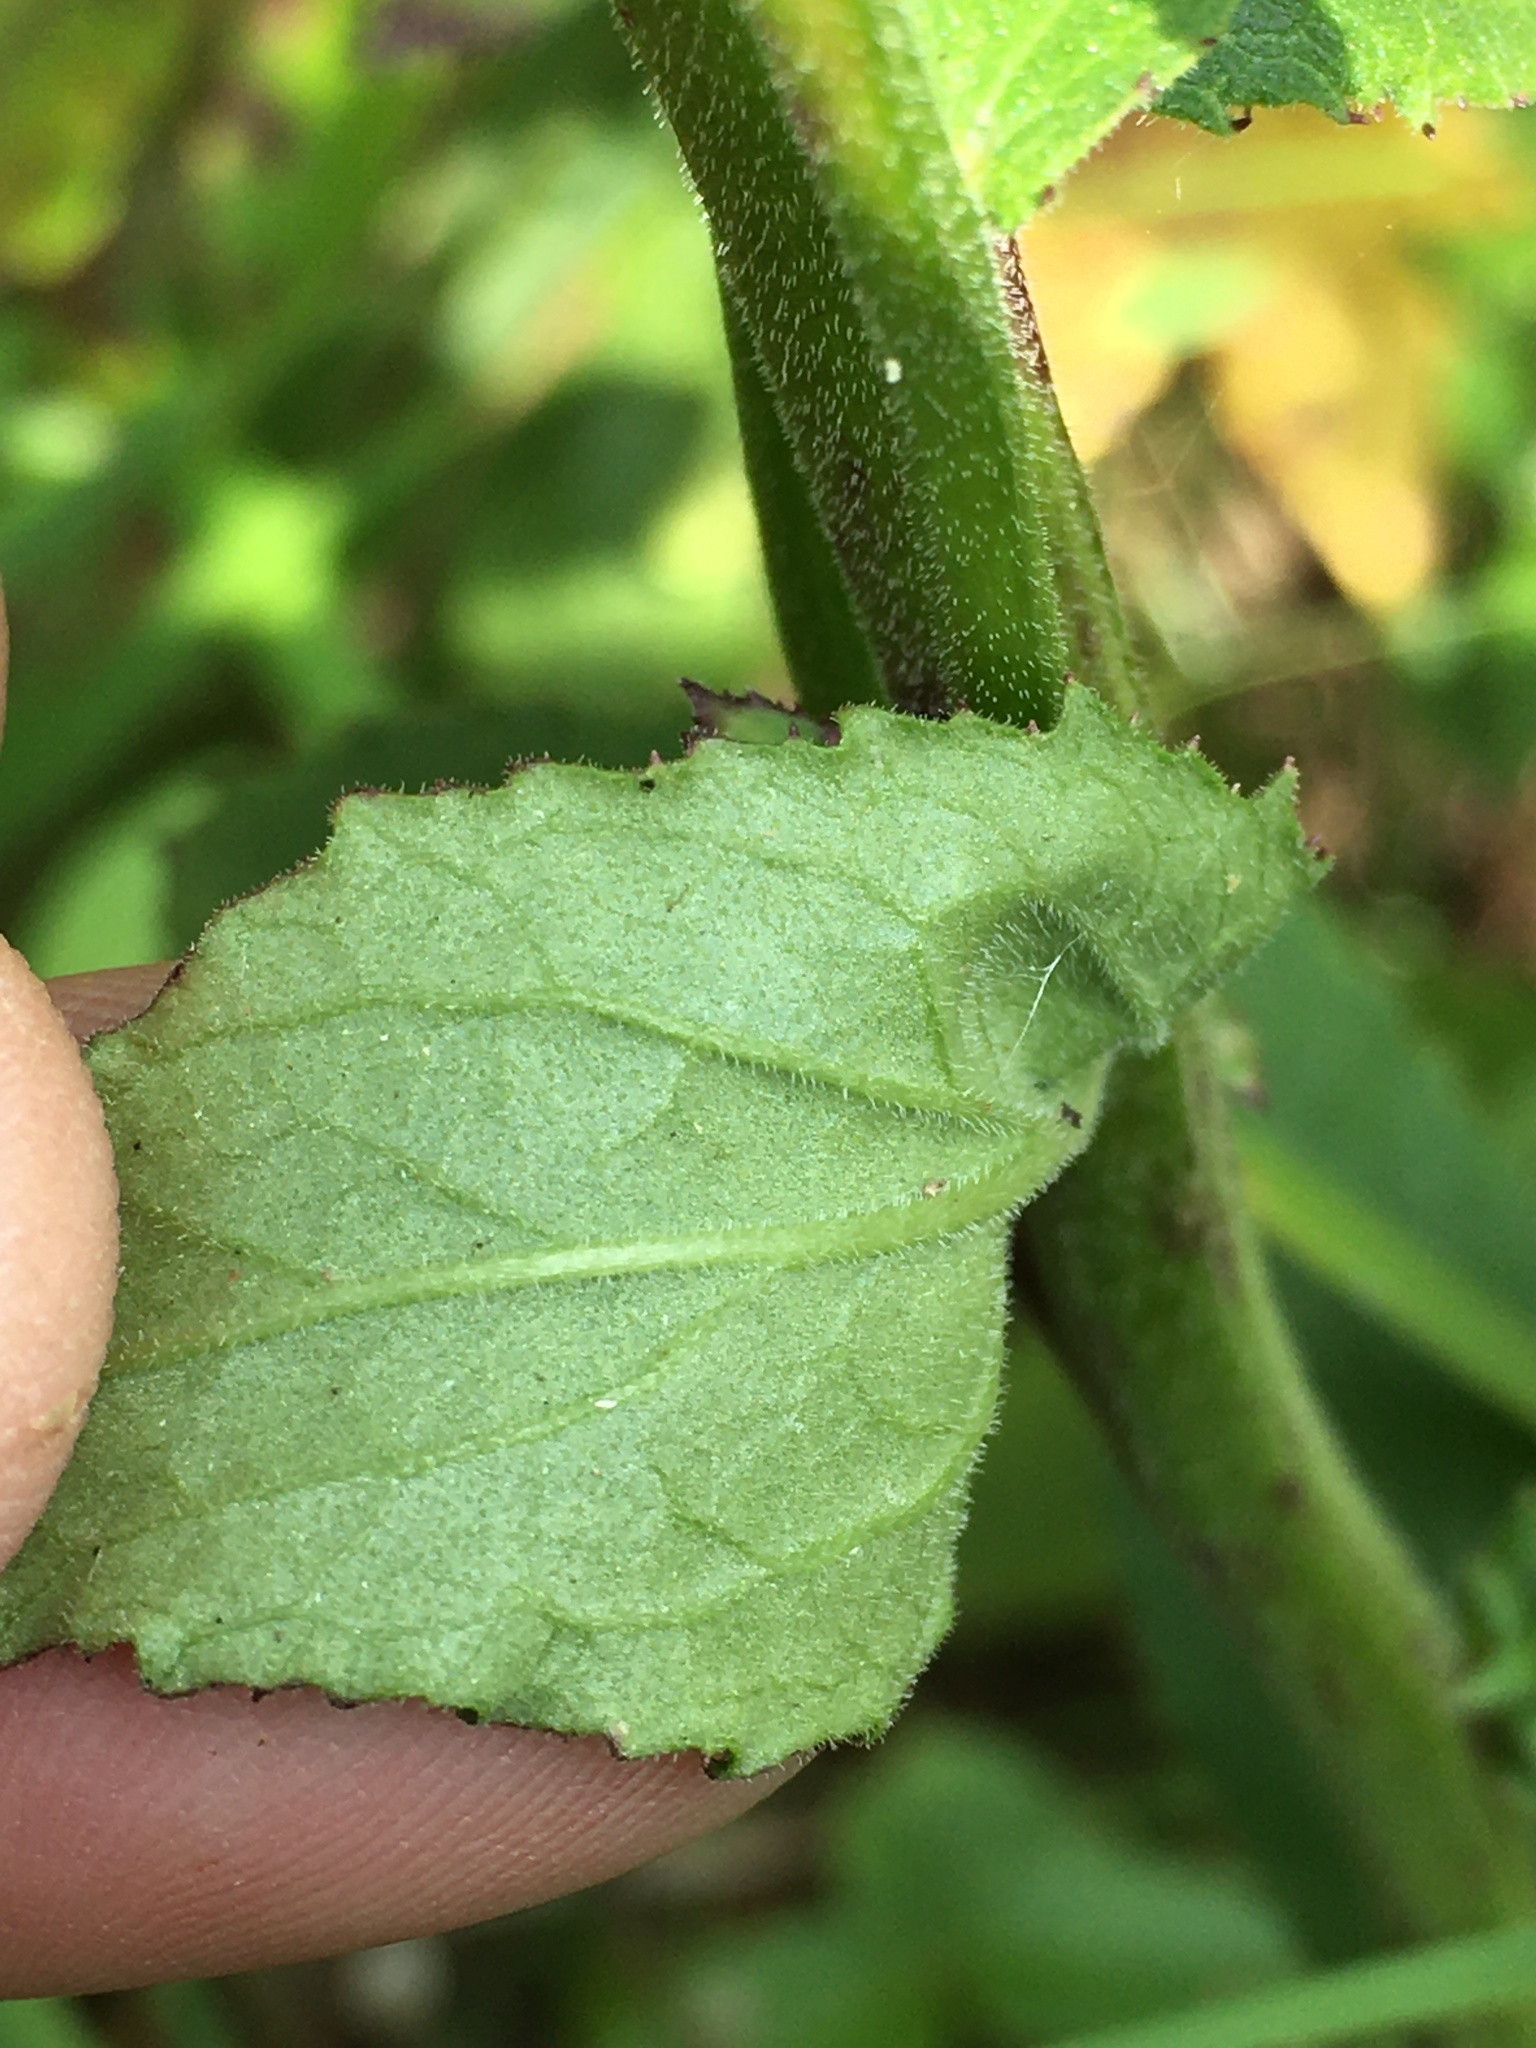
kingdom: Plantae
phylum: Tracheophyta
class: Magnoliopsida
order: Asterales
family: Campanulaceae
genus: Lobelia
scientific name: Lobelia puberula
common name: Purple dewdrop
